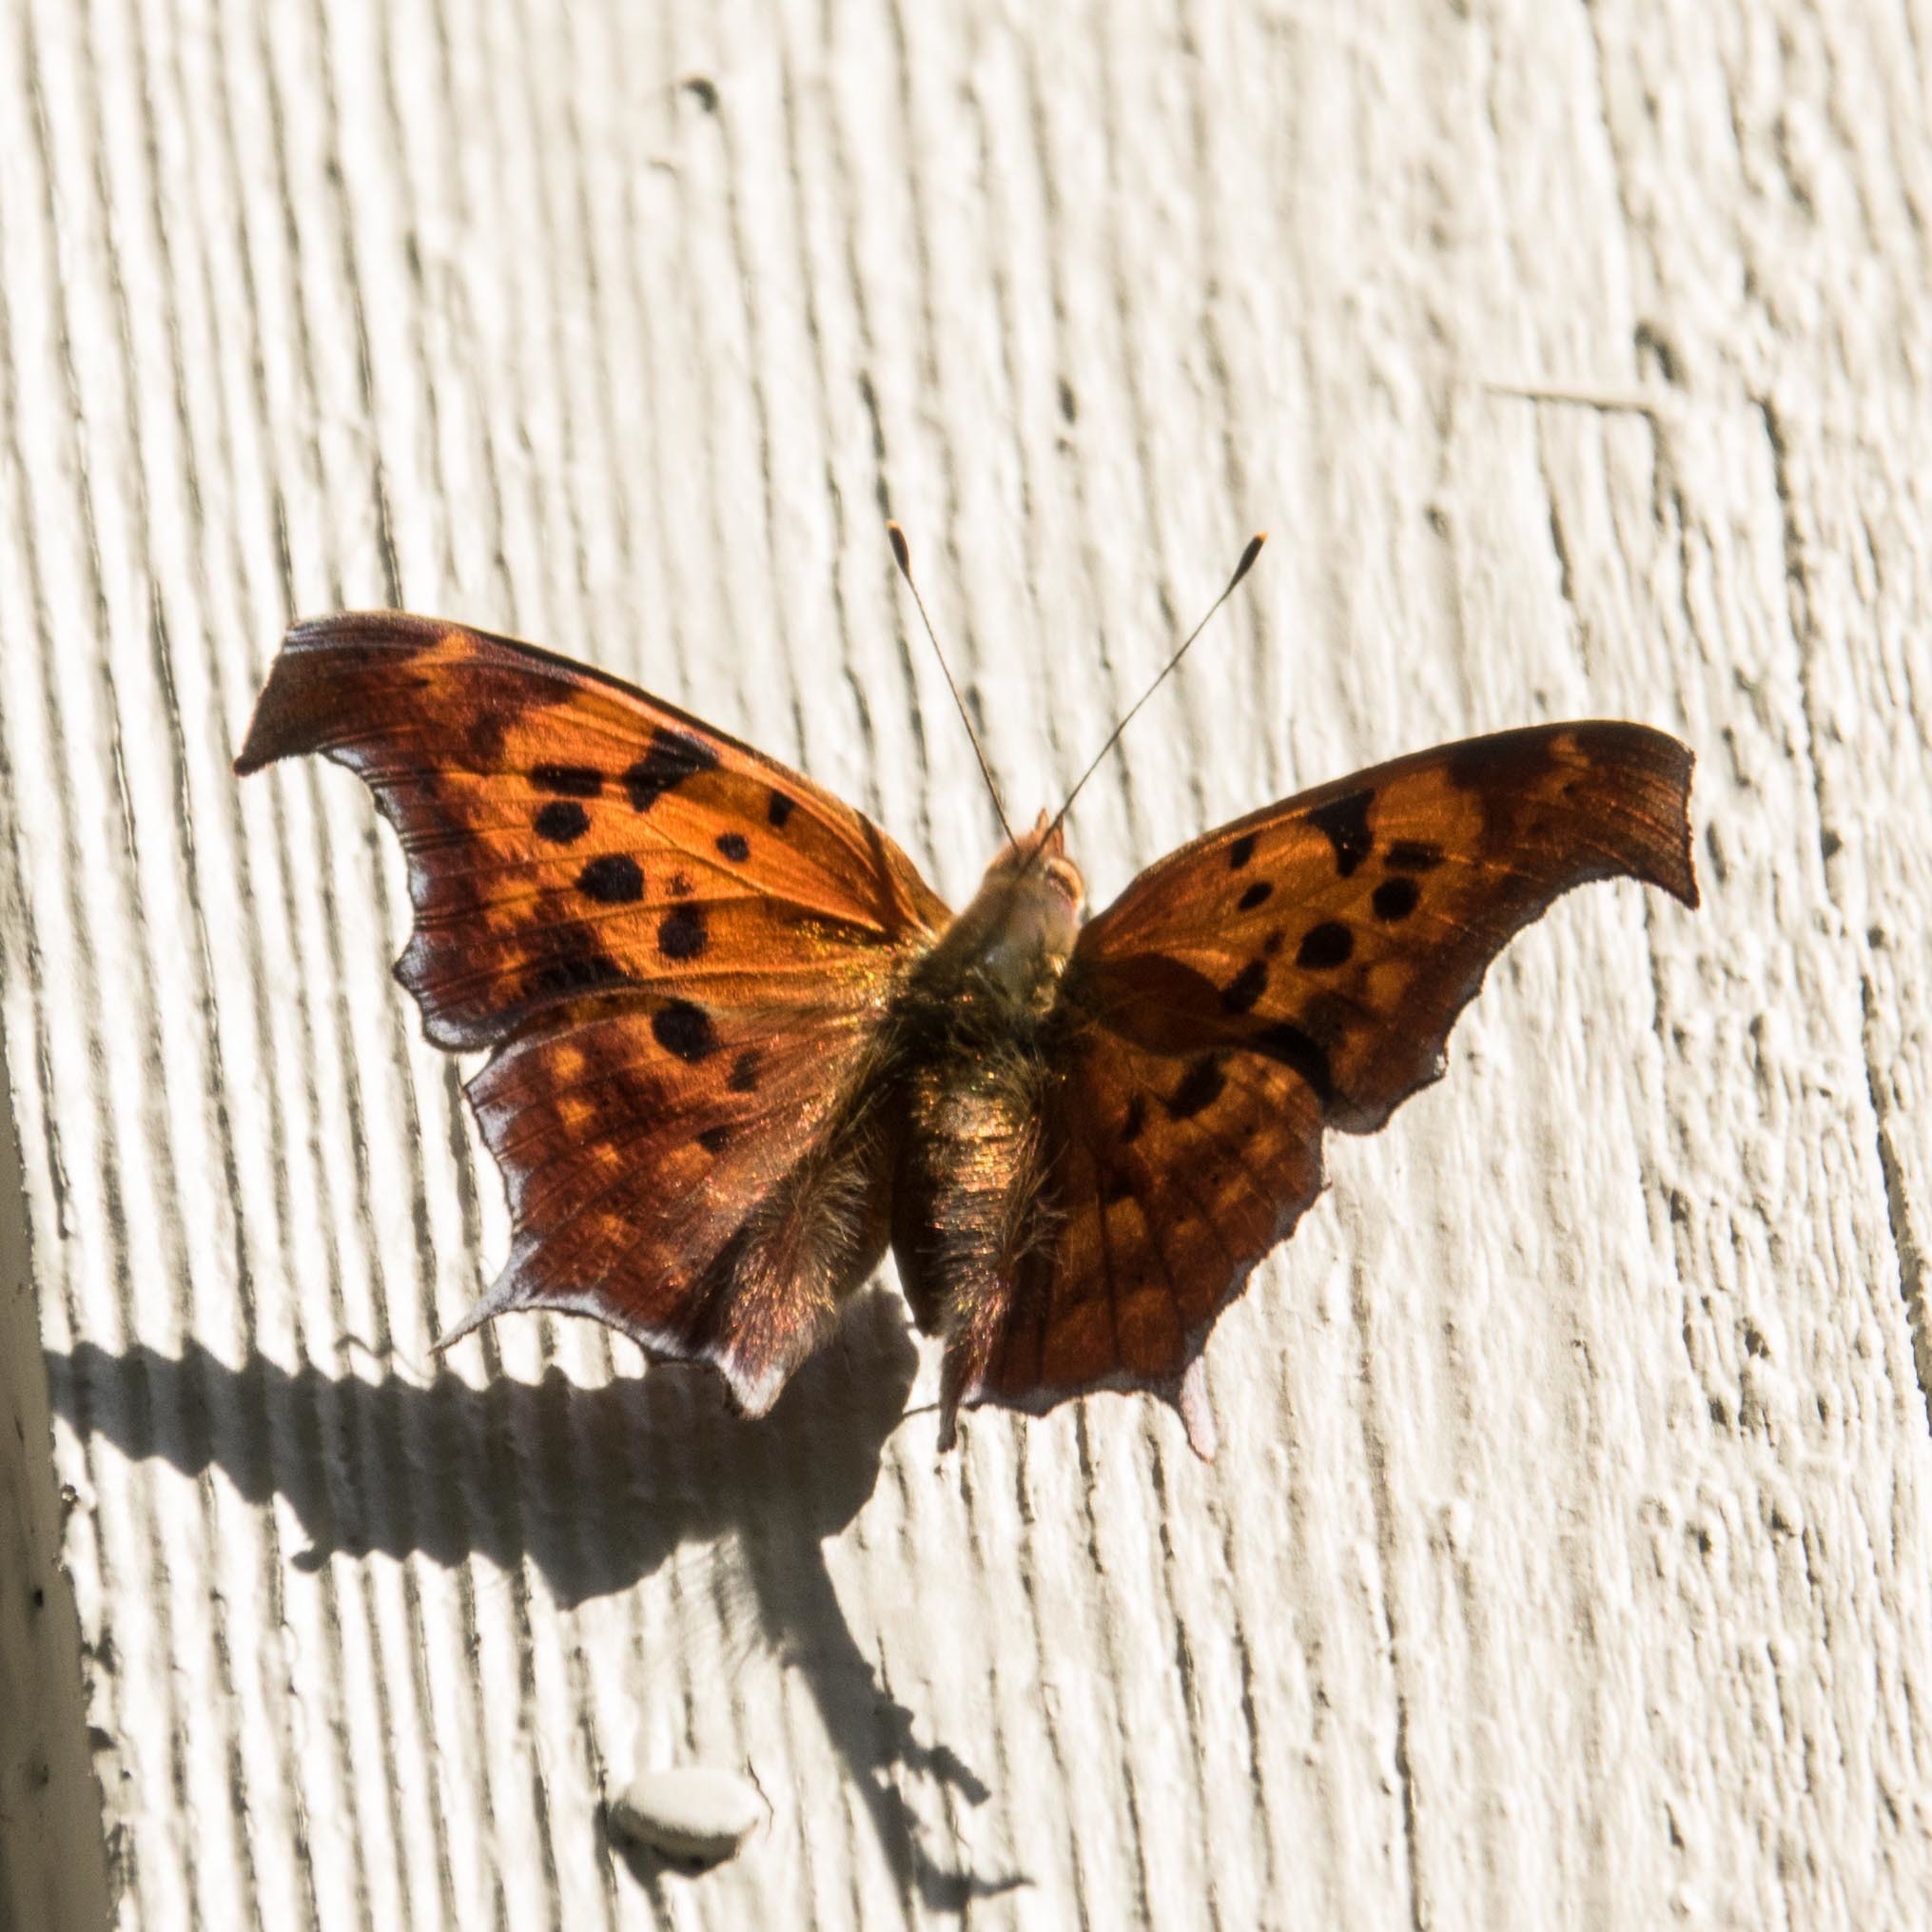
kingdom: Animalia
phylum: Arthropoda
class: Insecta
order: Lepidoptera
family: Nymphalidae
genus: Polygonia
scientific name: Polygonia interrogationis
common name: Question mark
